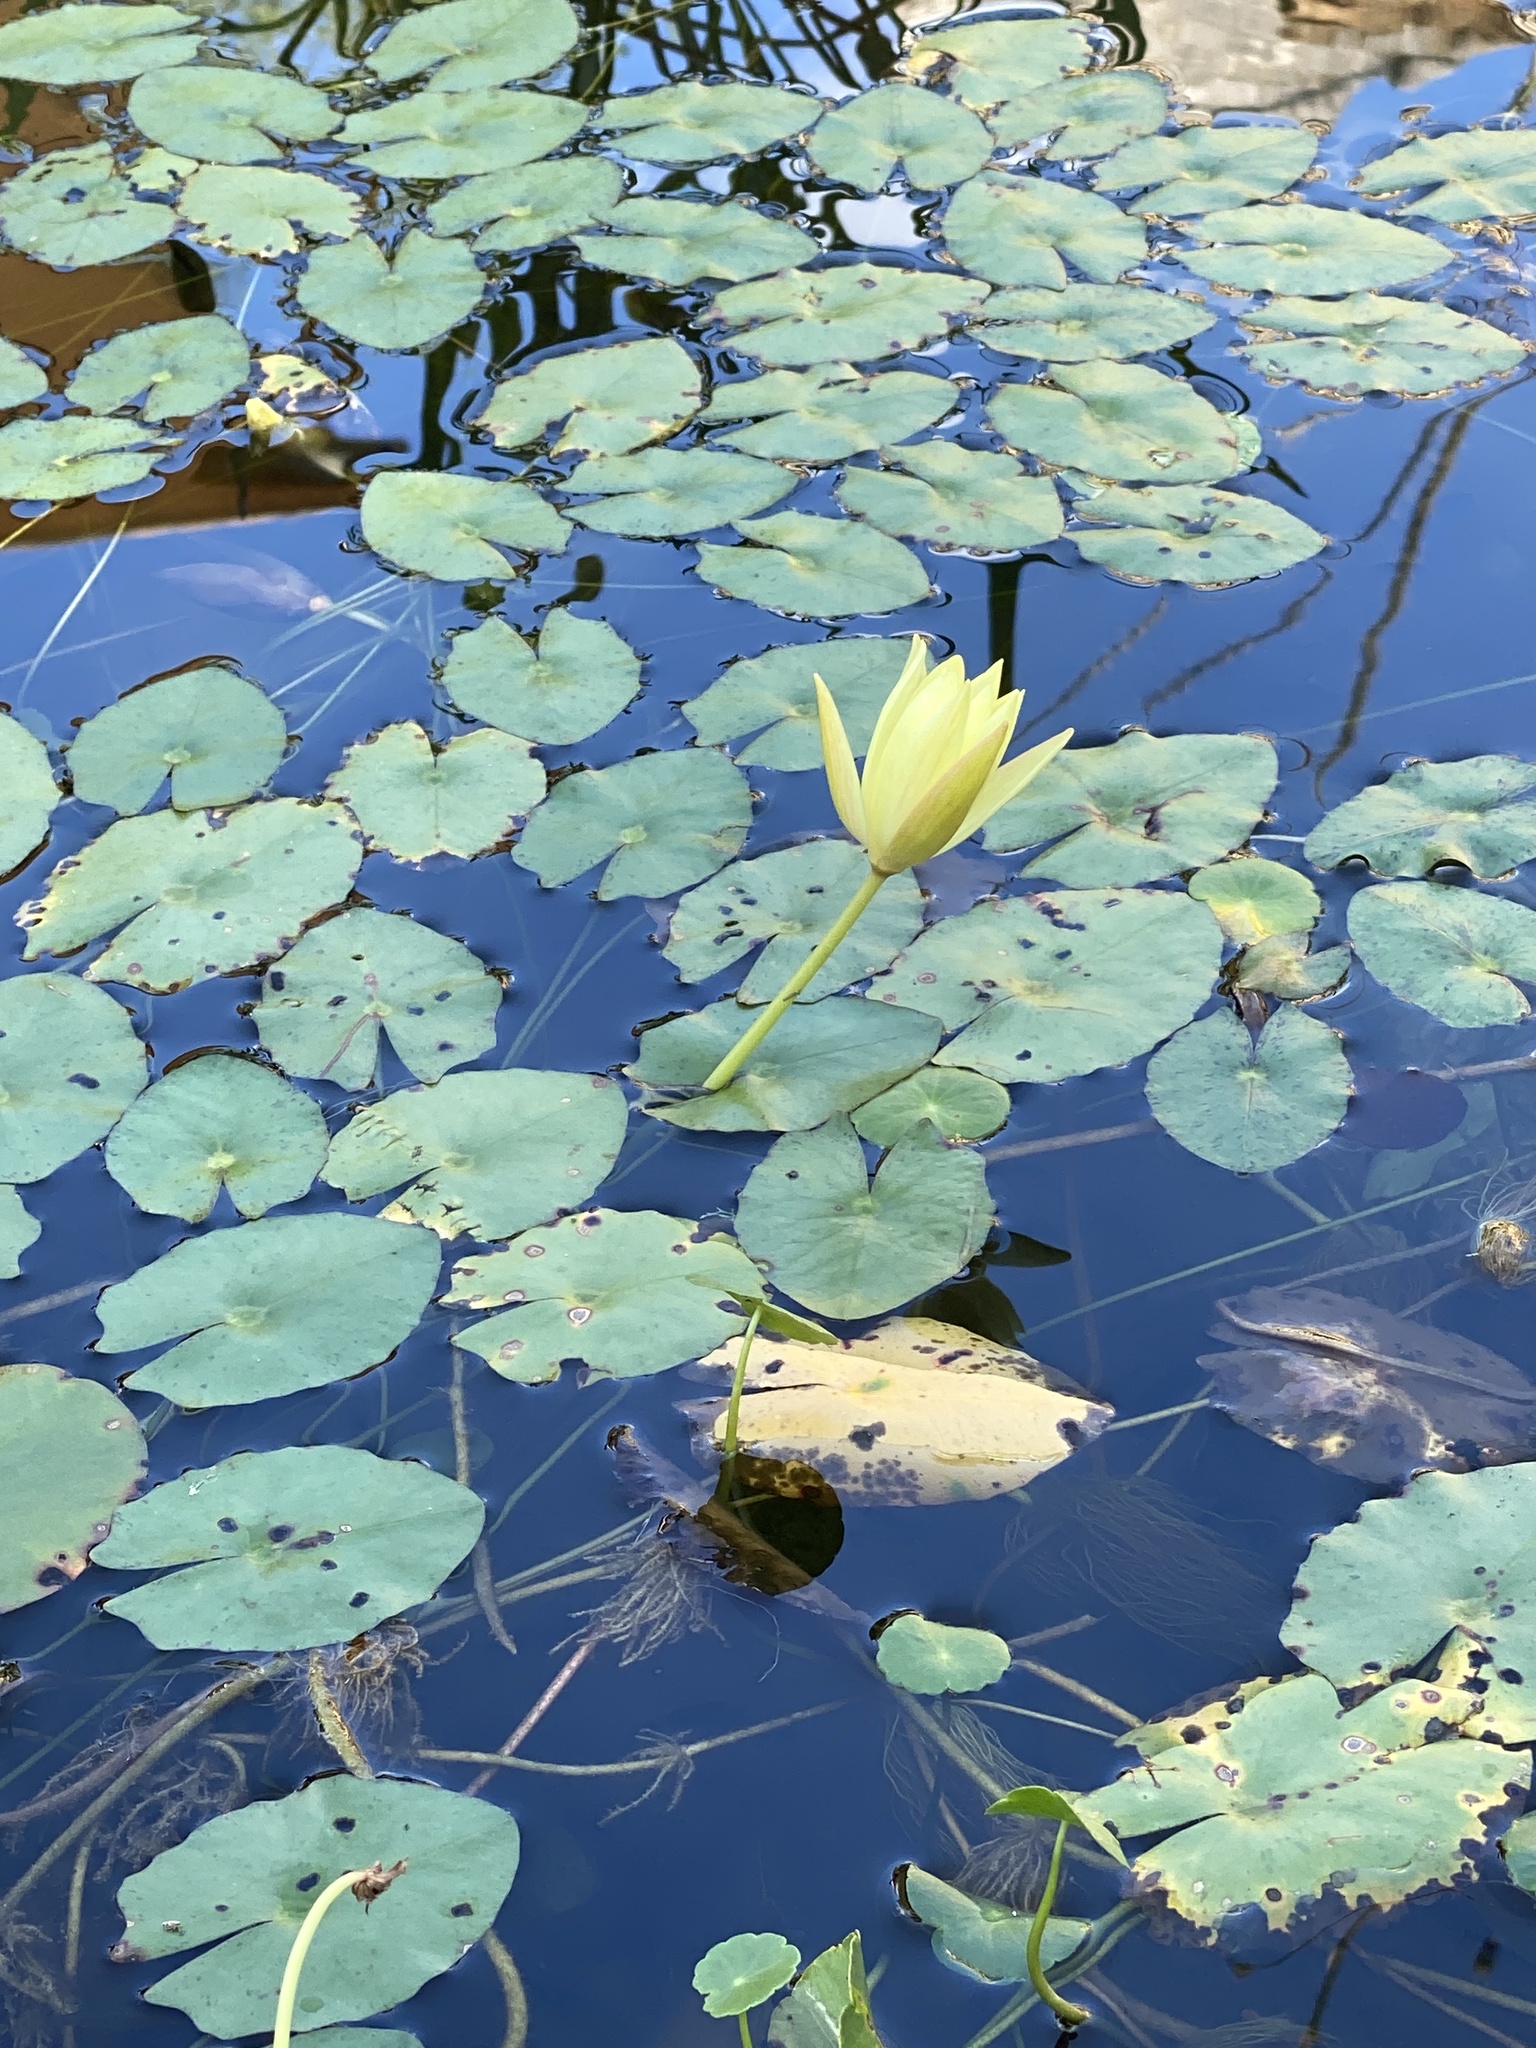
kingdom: Plantae
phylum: Tracheophyta
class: Magnoliopsida
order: Nymphaeales
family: Nymphaeaceae
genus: Nymphaea
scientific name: Nymphaea mexicana
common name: Banana water-lily
